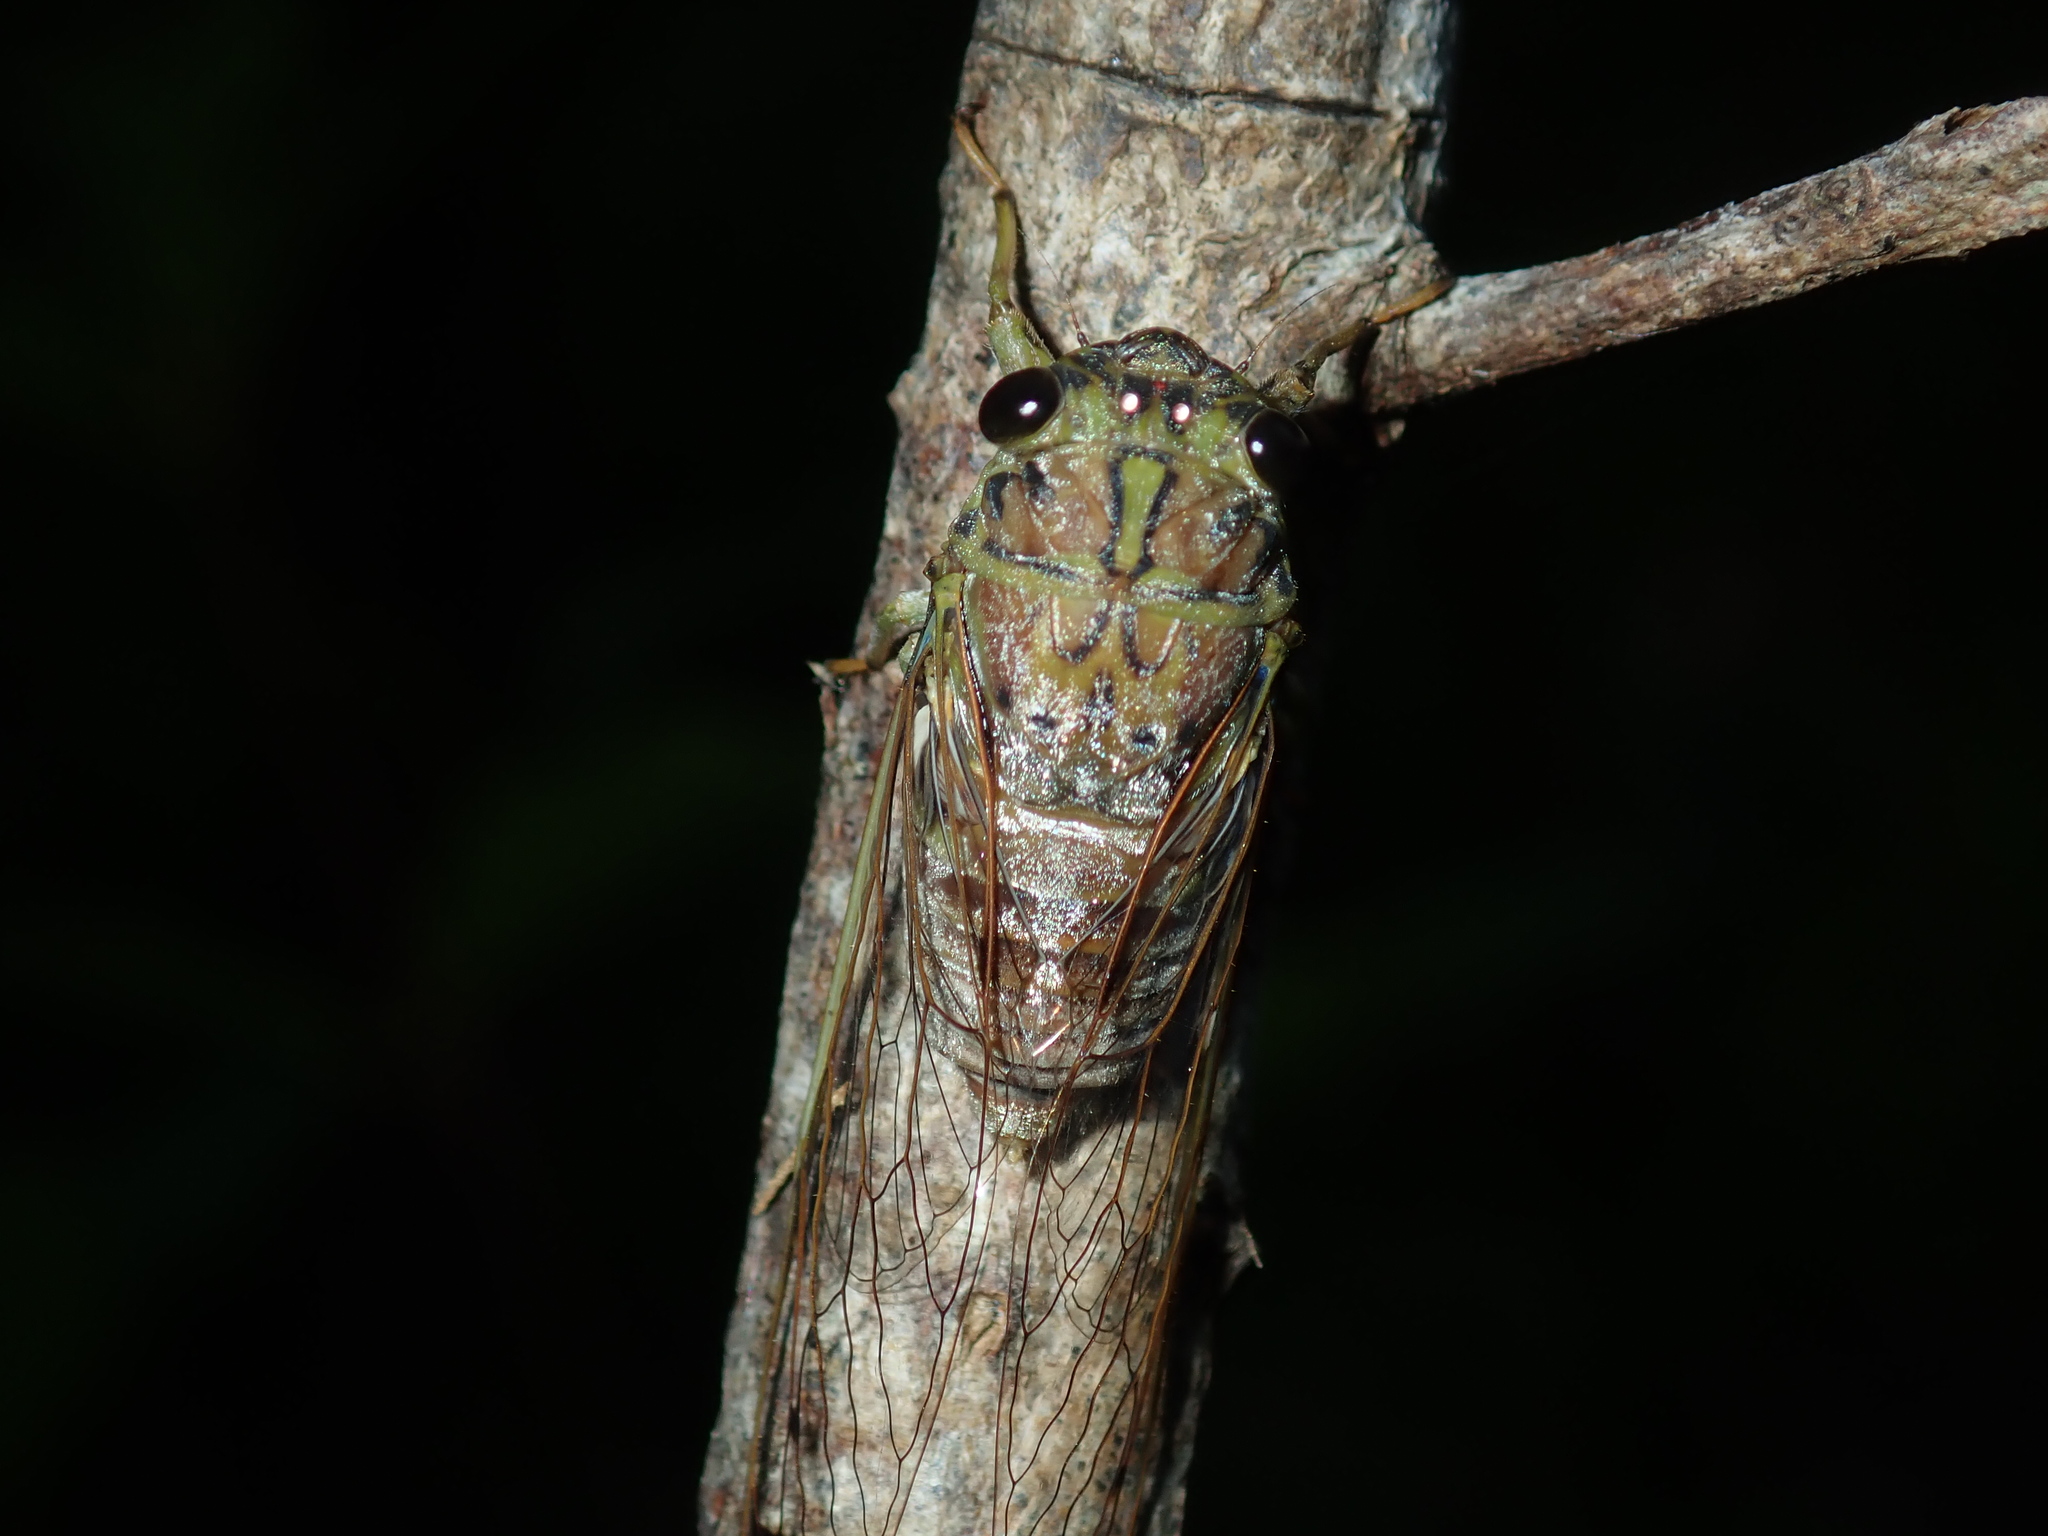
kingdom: Animalia
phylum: Arthropoda
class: Insecta
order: Hemiptera
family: Cicadidae
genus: Tamasa
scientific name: Tamasa tristigma
